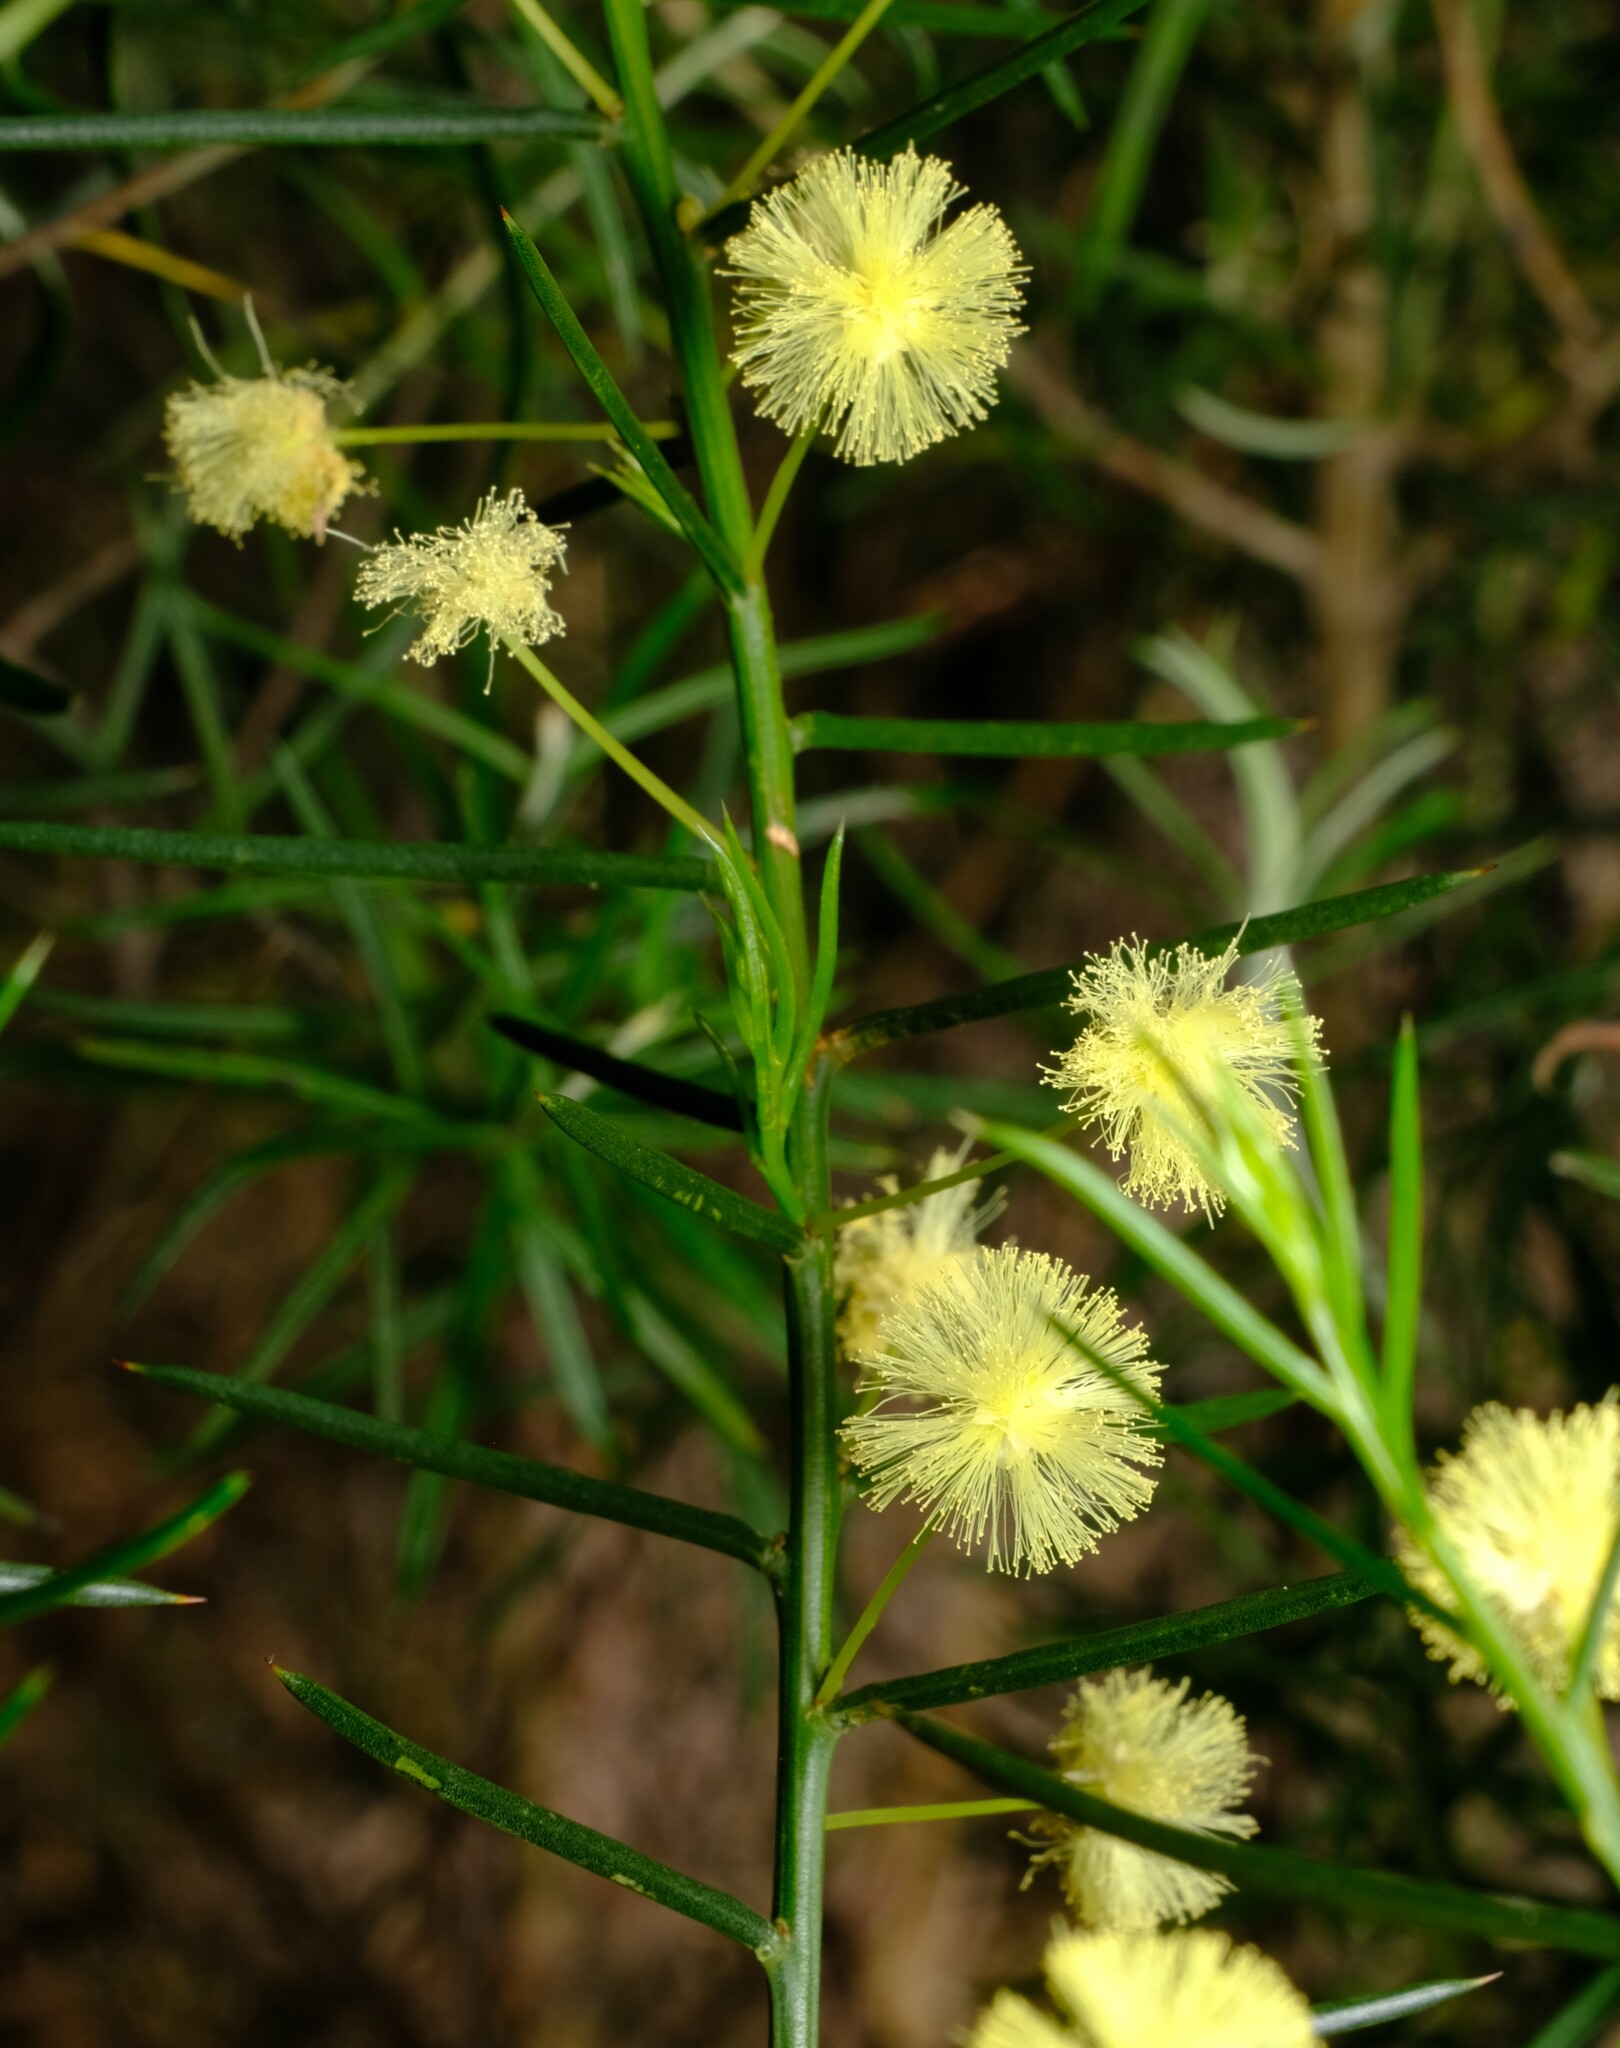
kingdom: Plantae
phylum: Tracheophyta
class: Magnoliopsida
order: Fabales
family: Fabaceae
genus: Acacia
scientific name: Acacia genistifolia
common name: Early wattle
